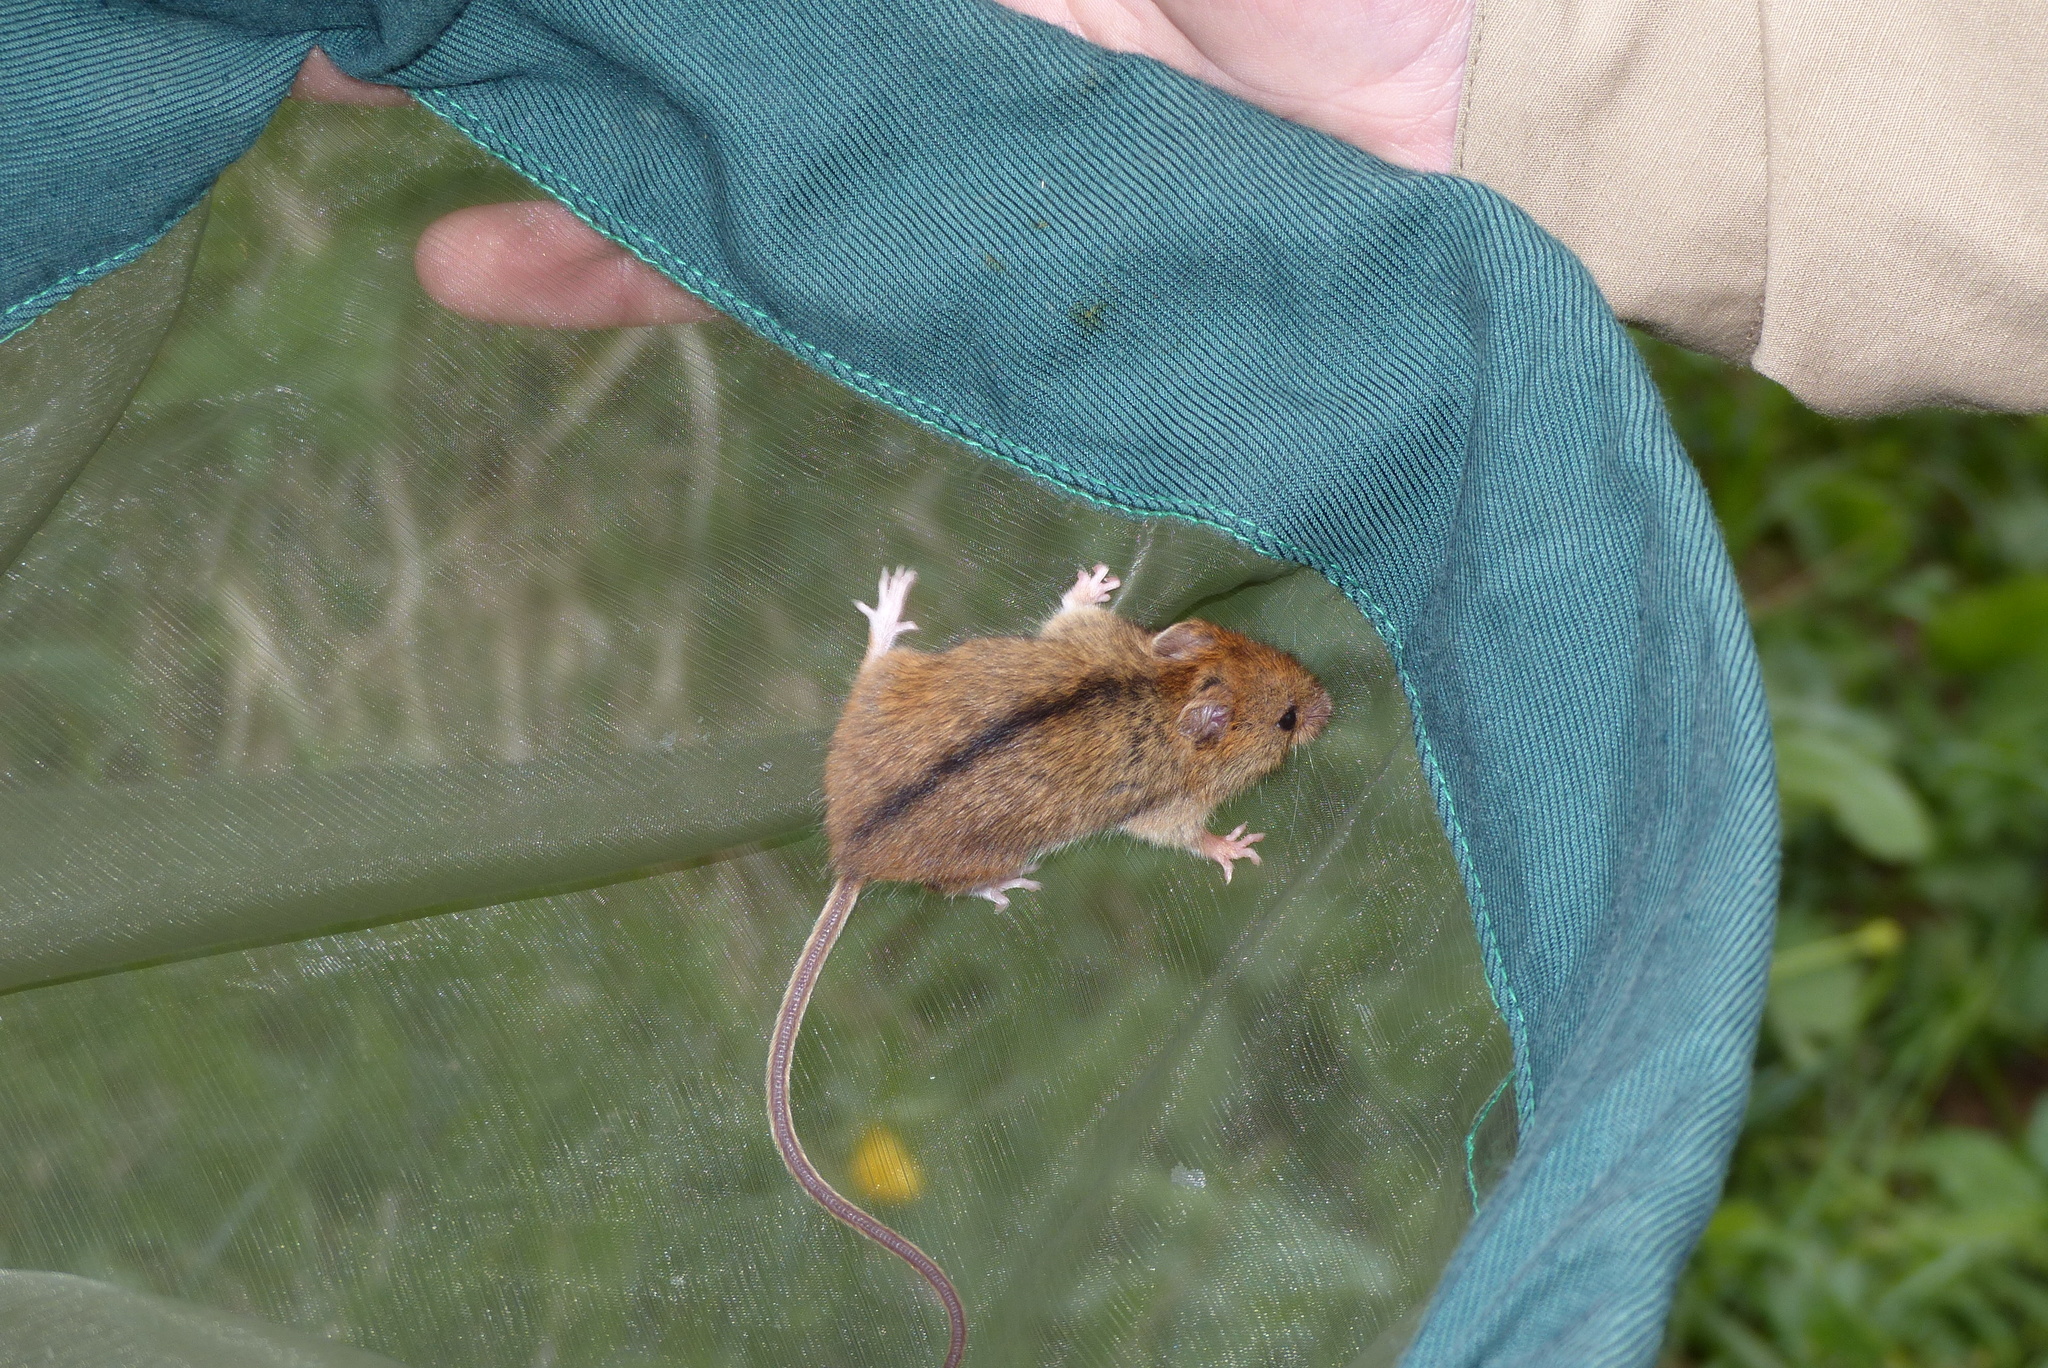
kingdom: Animalia
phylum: Chordata
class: Mammalia
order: Rodentia
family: Dipodidae
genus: Sicista
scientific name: Sicista betulina
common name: Northern birch mouse
